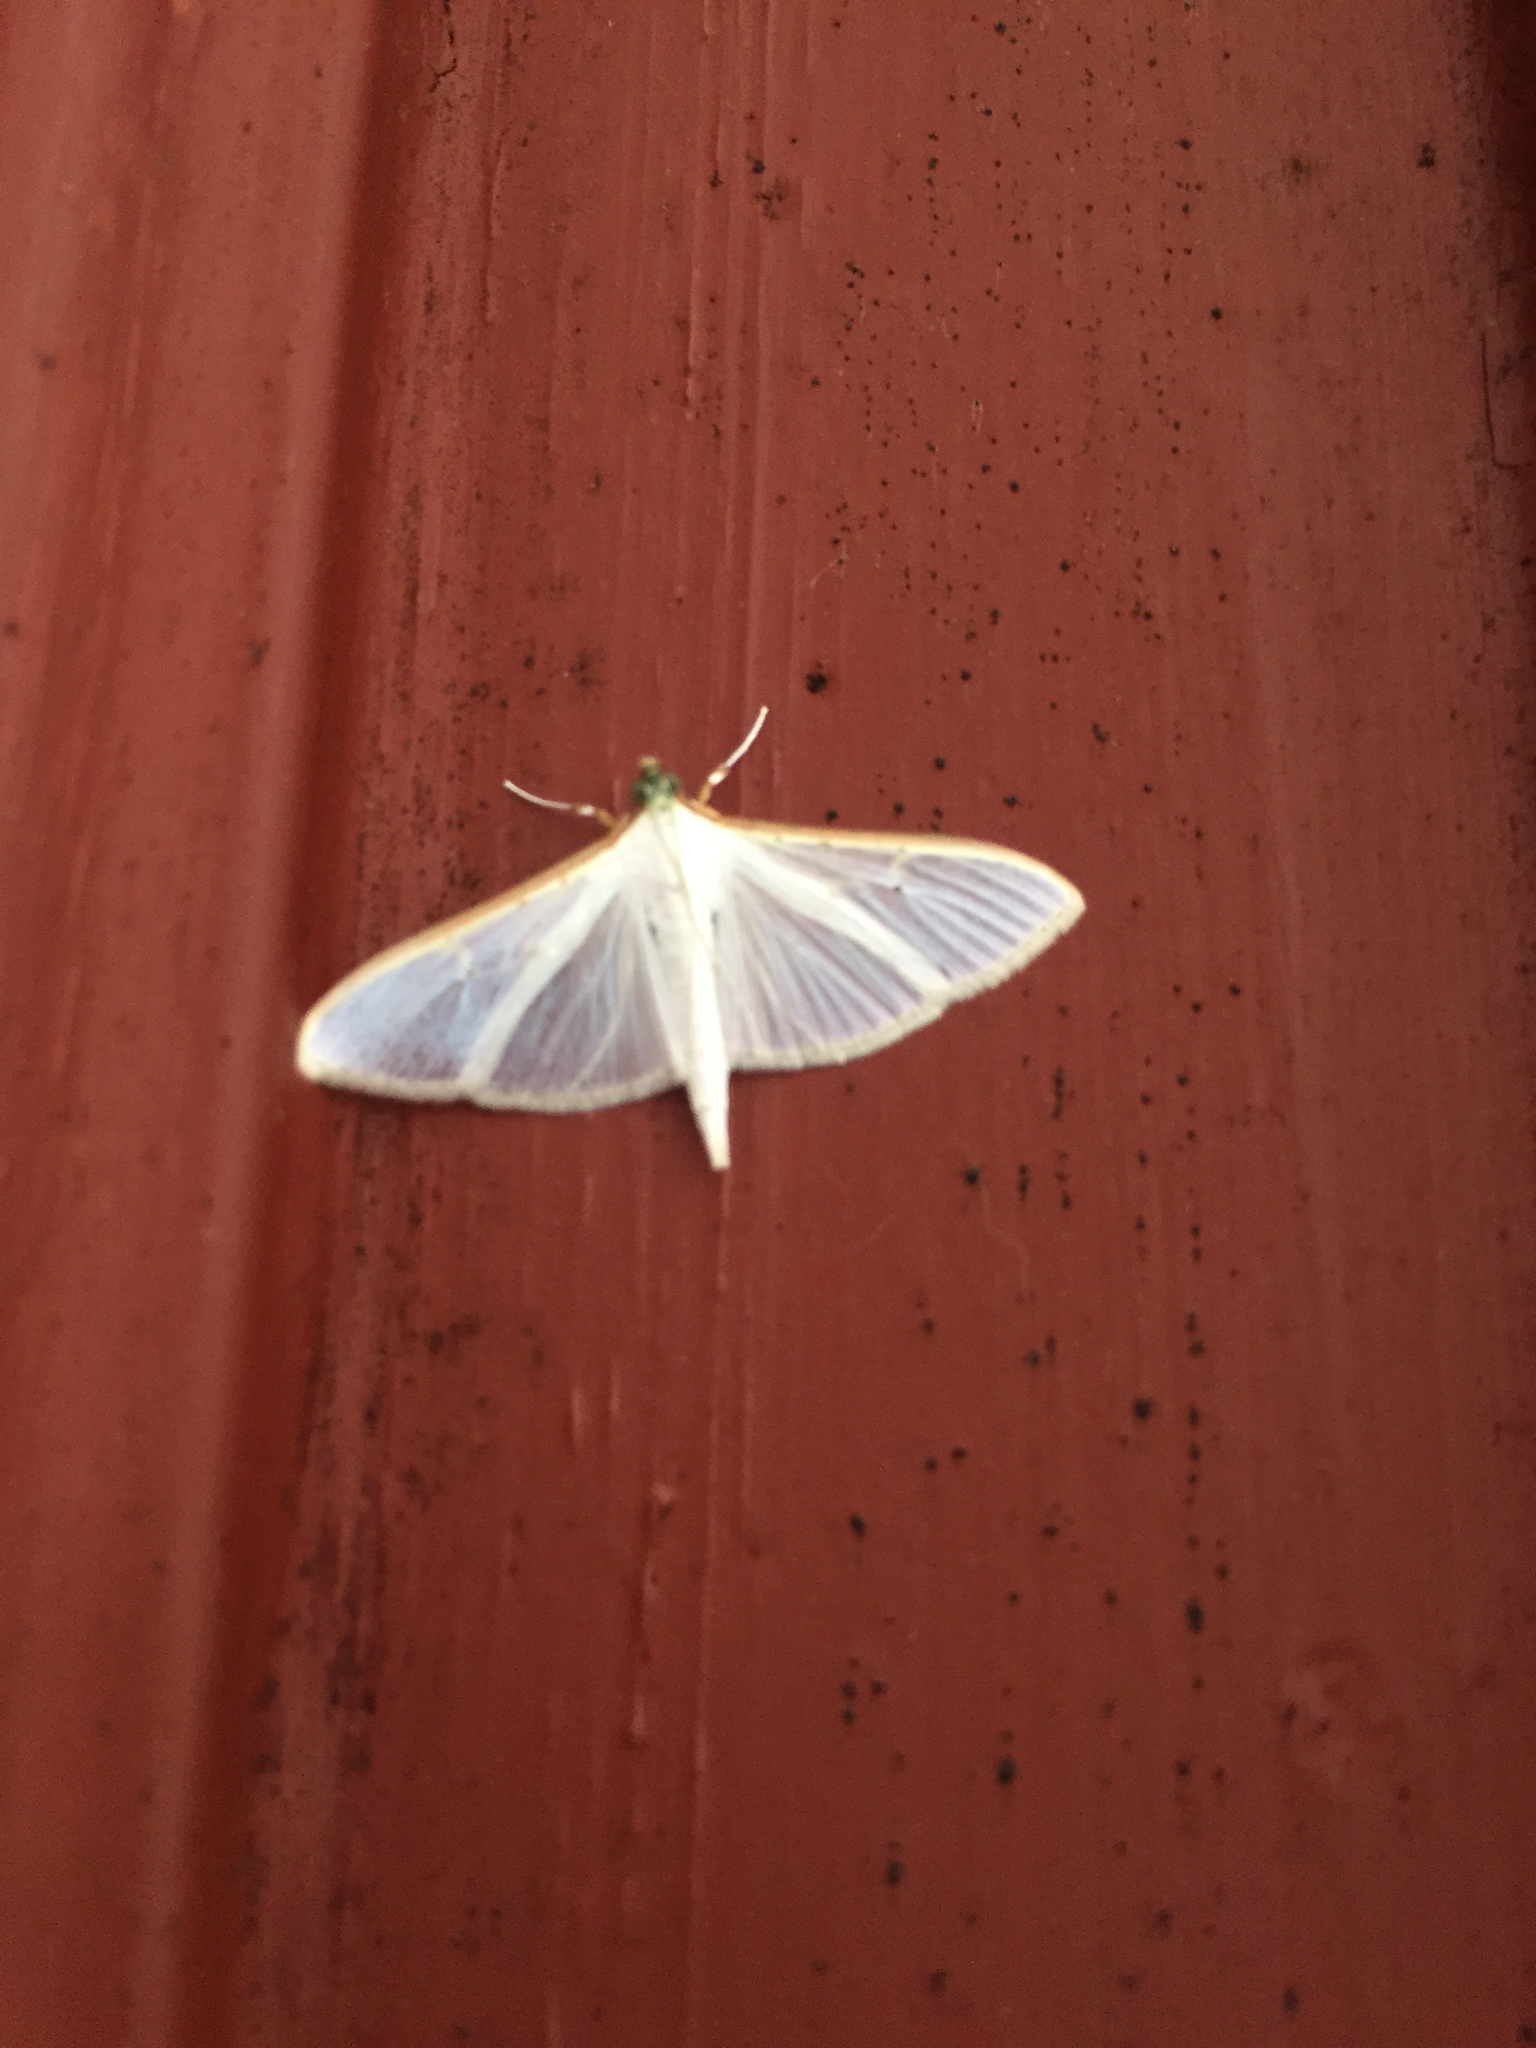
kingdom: Animalia
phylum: Arthropoda
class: Insecta
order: Lepidoptera
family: Crambidae
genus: Palpita
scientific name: Palpita vitrealis
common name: Olive-tree pearl
